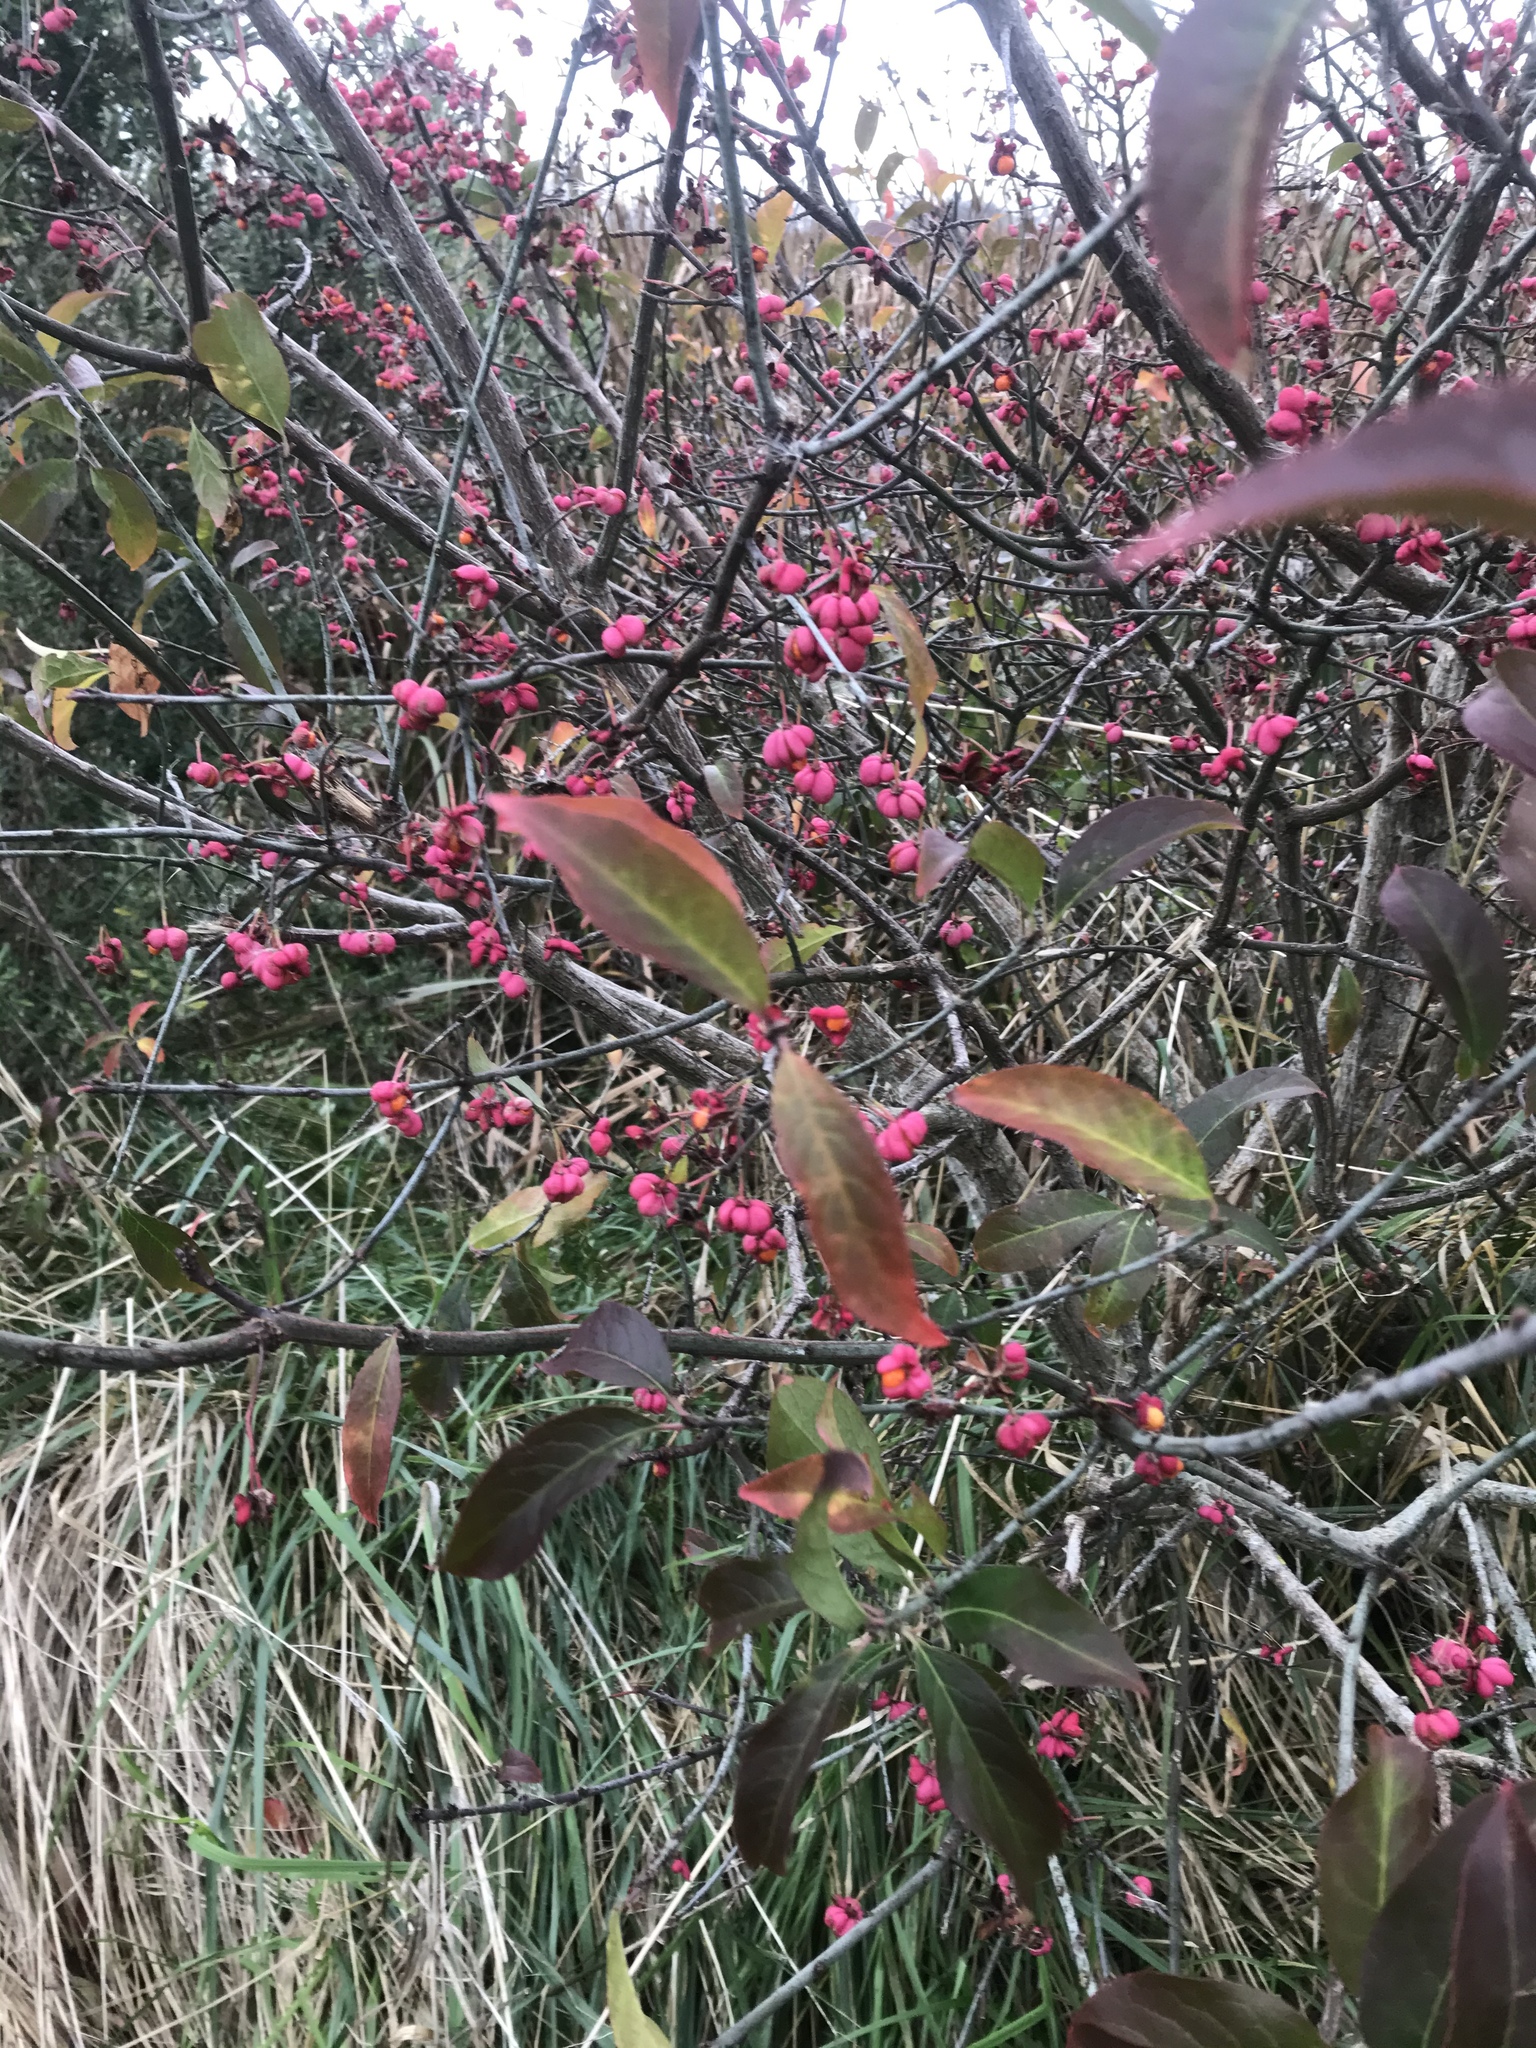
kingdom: Plantae
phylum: Tracheophyta
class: Magnoliopsida
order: Celastrales
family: Celastraceae
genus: Euonymus
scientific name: Euonymus europaeus
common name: Spindle
